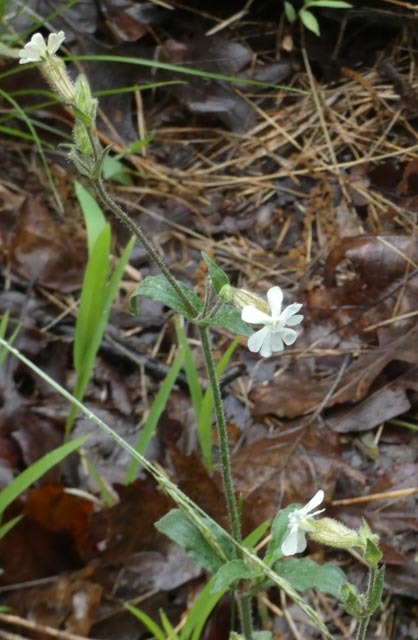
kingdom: Plantae
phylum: Tracheophyta
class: Magnoliopsida
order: Caryophyllales
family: Caryophyllaceae
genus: Silene
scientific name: Silene latifolia
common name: White campion
